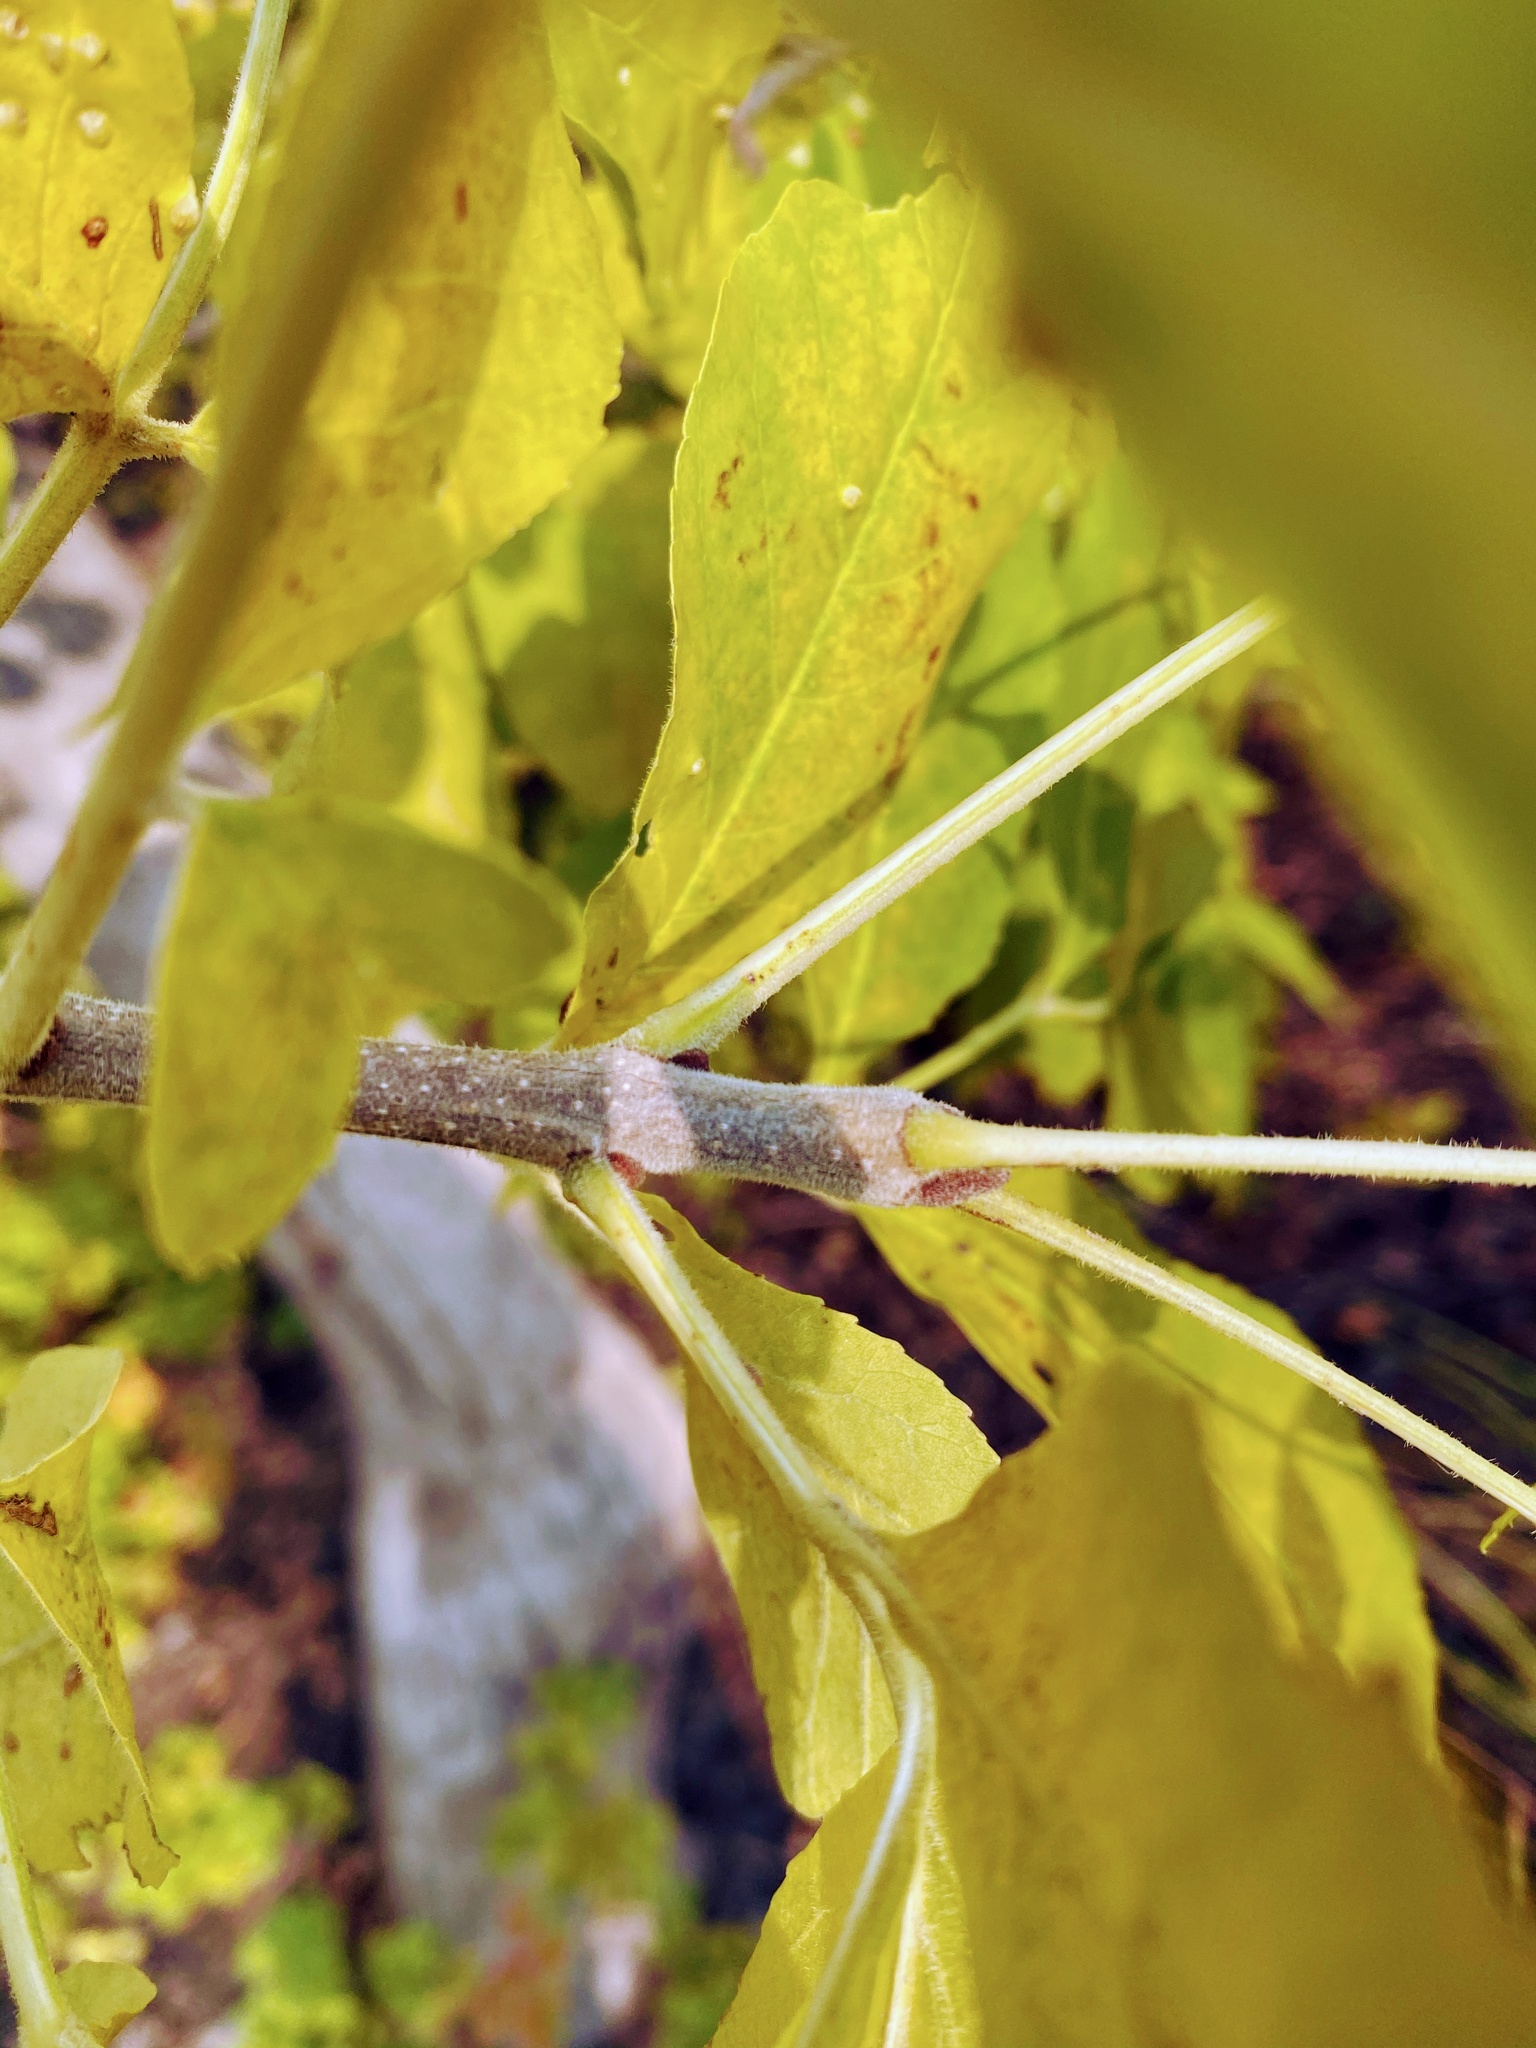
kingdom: Plantae
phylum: Tracheophyta
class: Magnoliopsida
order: Lamiales
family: Oleaceae
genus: Fraxinus
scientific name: Fraxinus pennsylvanica
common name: Green ash
